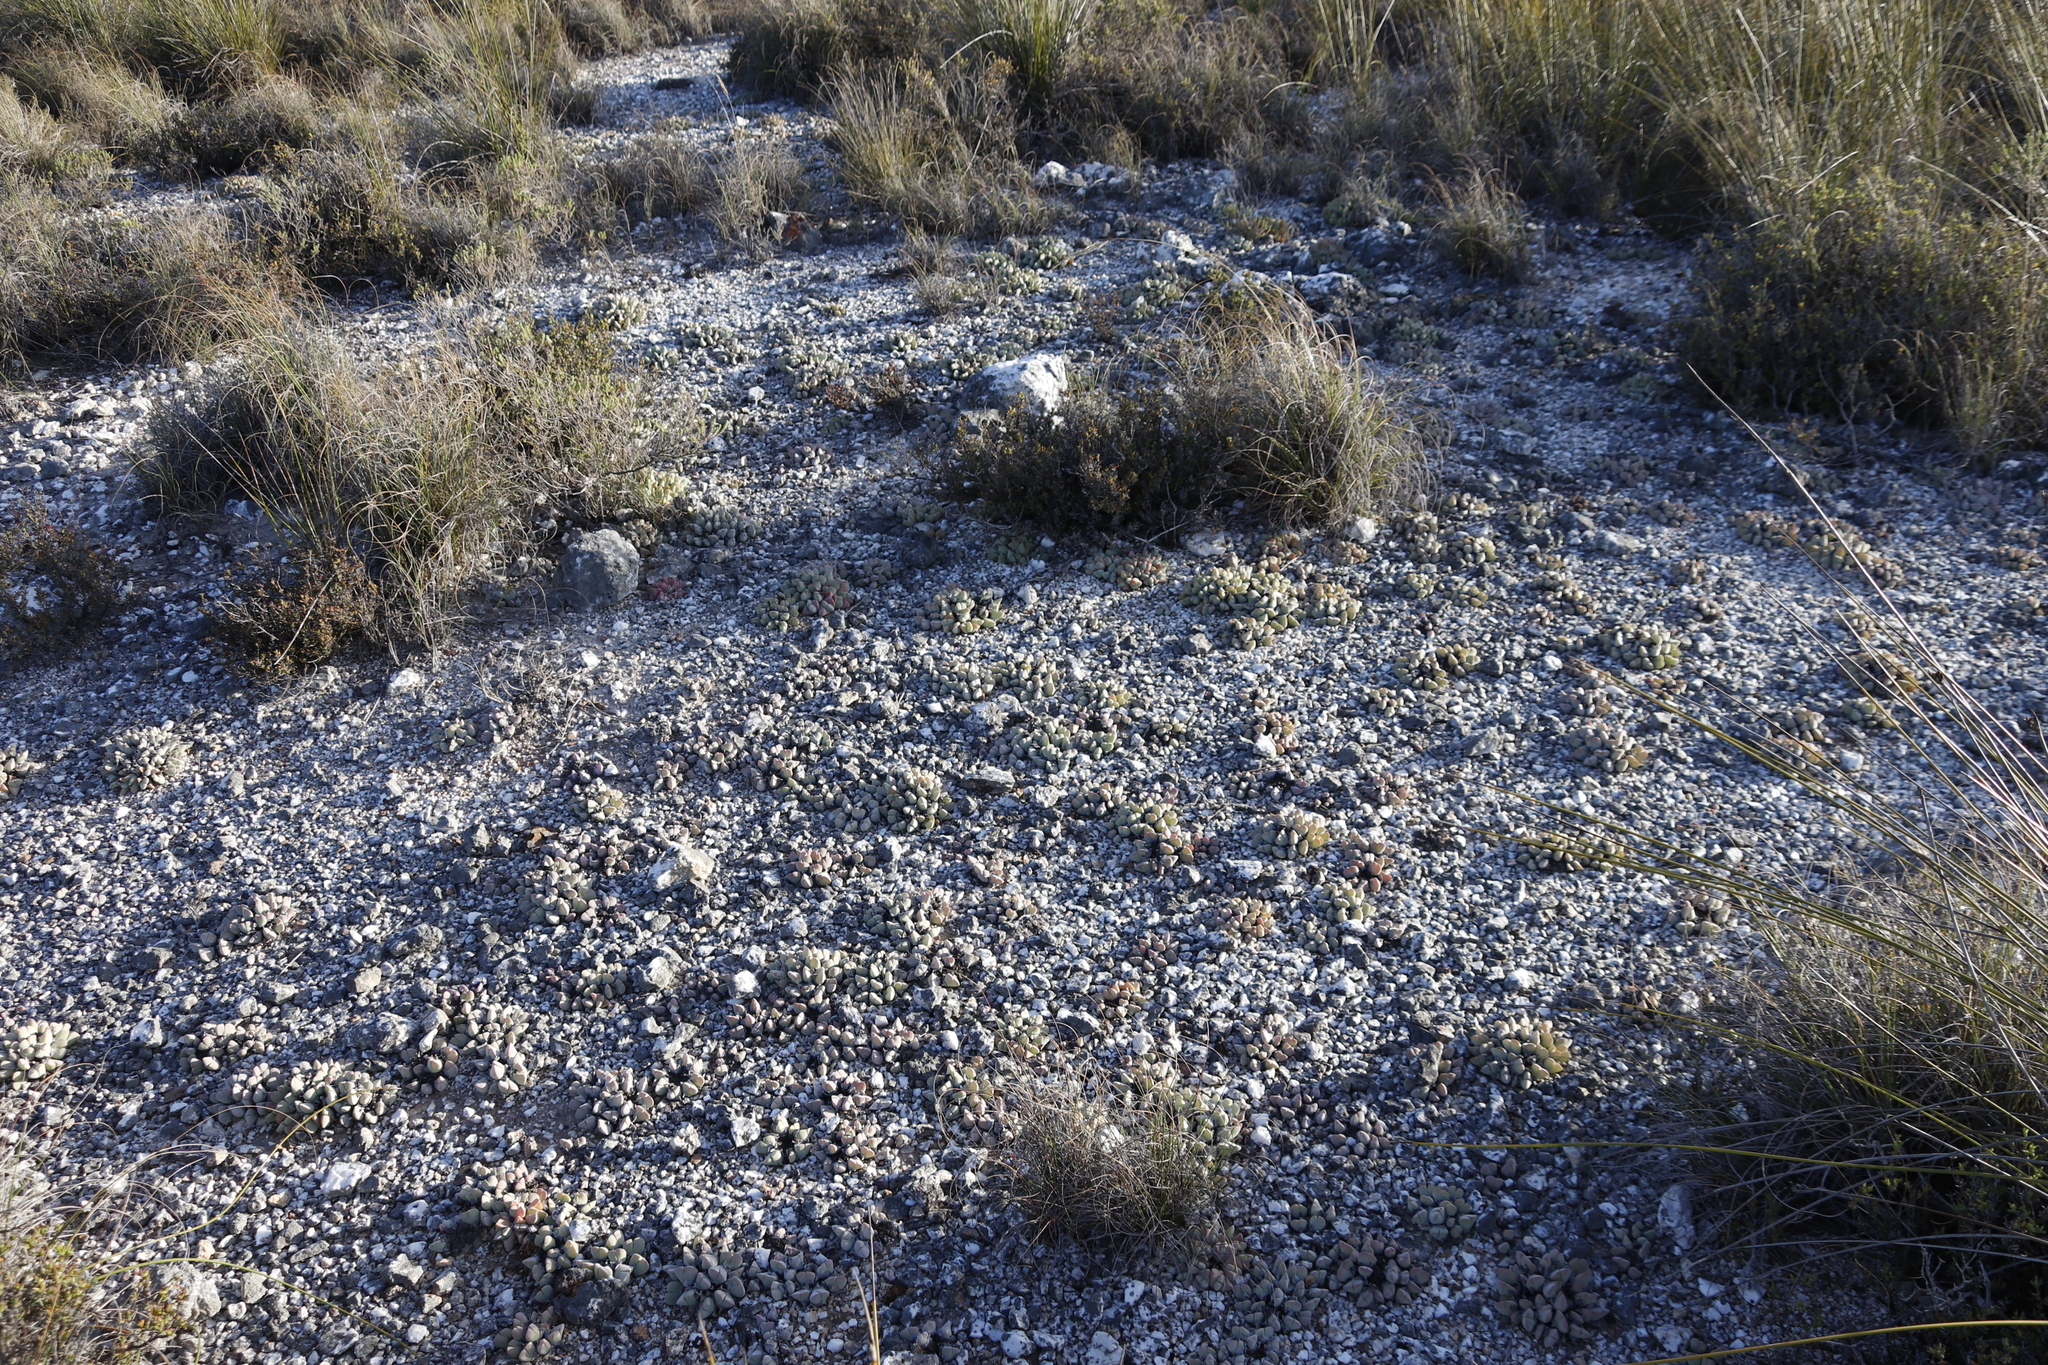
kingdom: Plantae
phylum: Tracheophyta
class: Magnoliopsida
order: Caryophyllales
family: Aizoaceae
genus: Gibbaeum
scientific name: Gibbaeum hartmannianum
